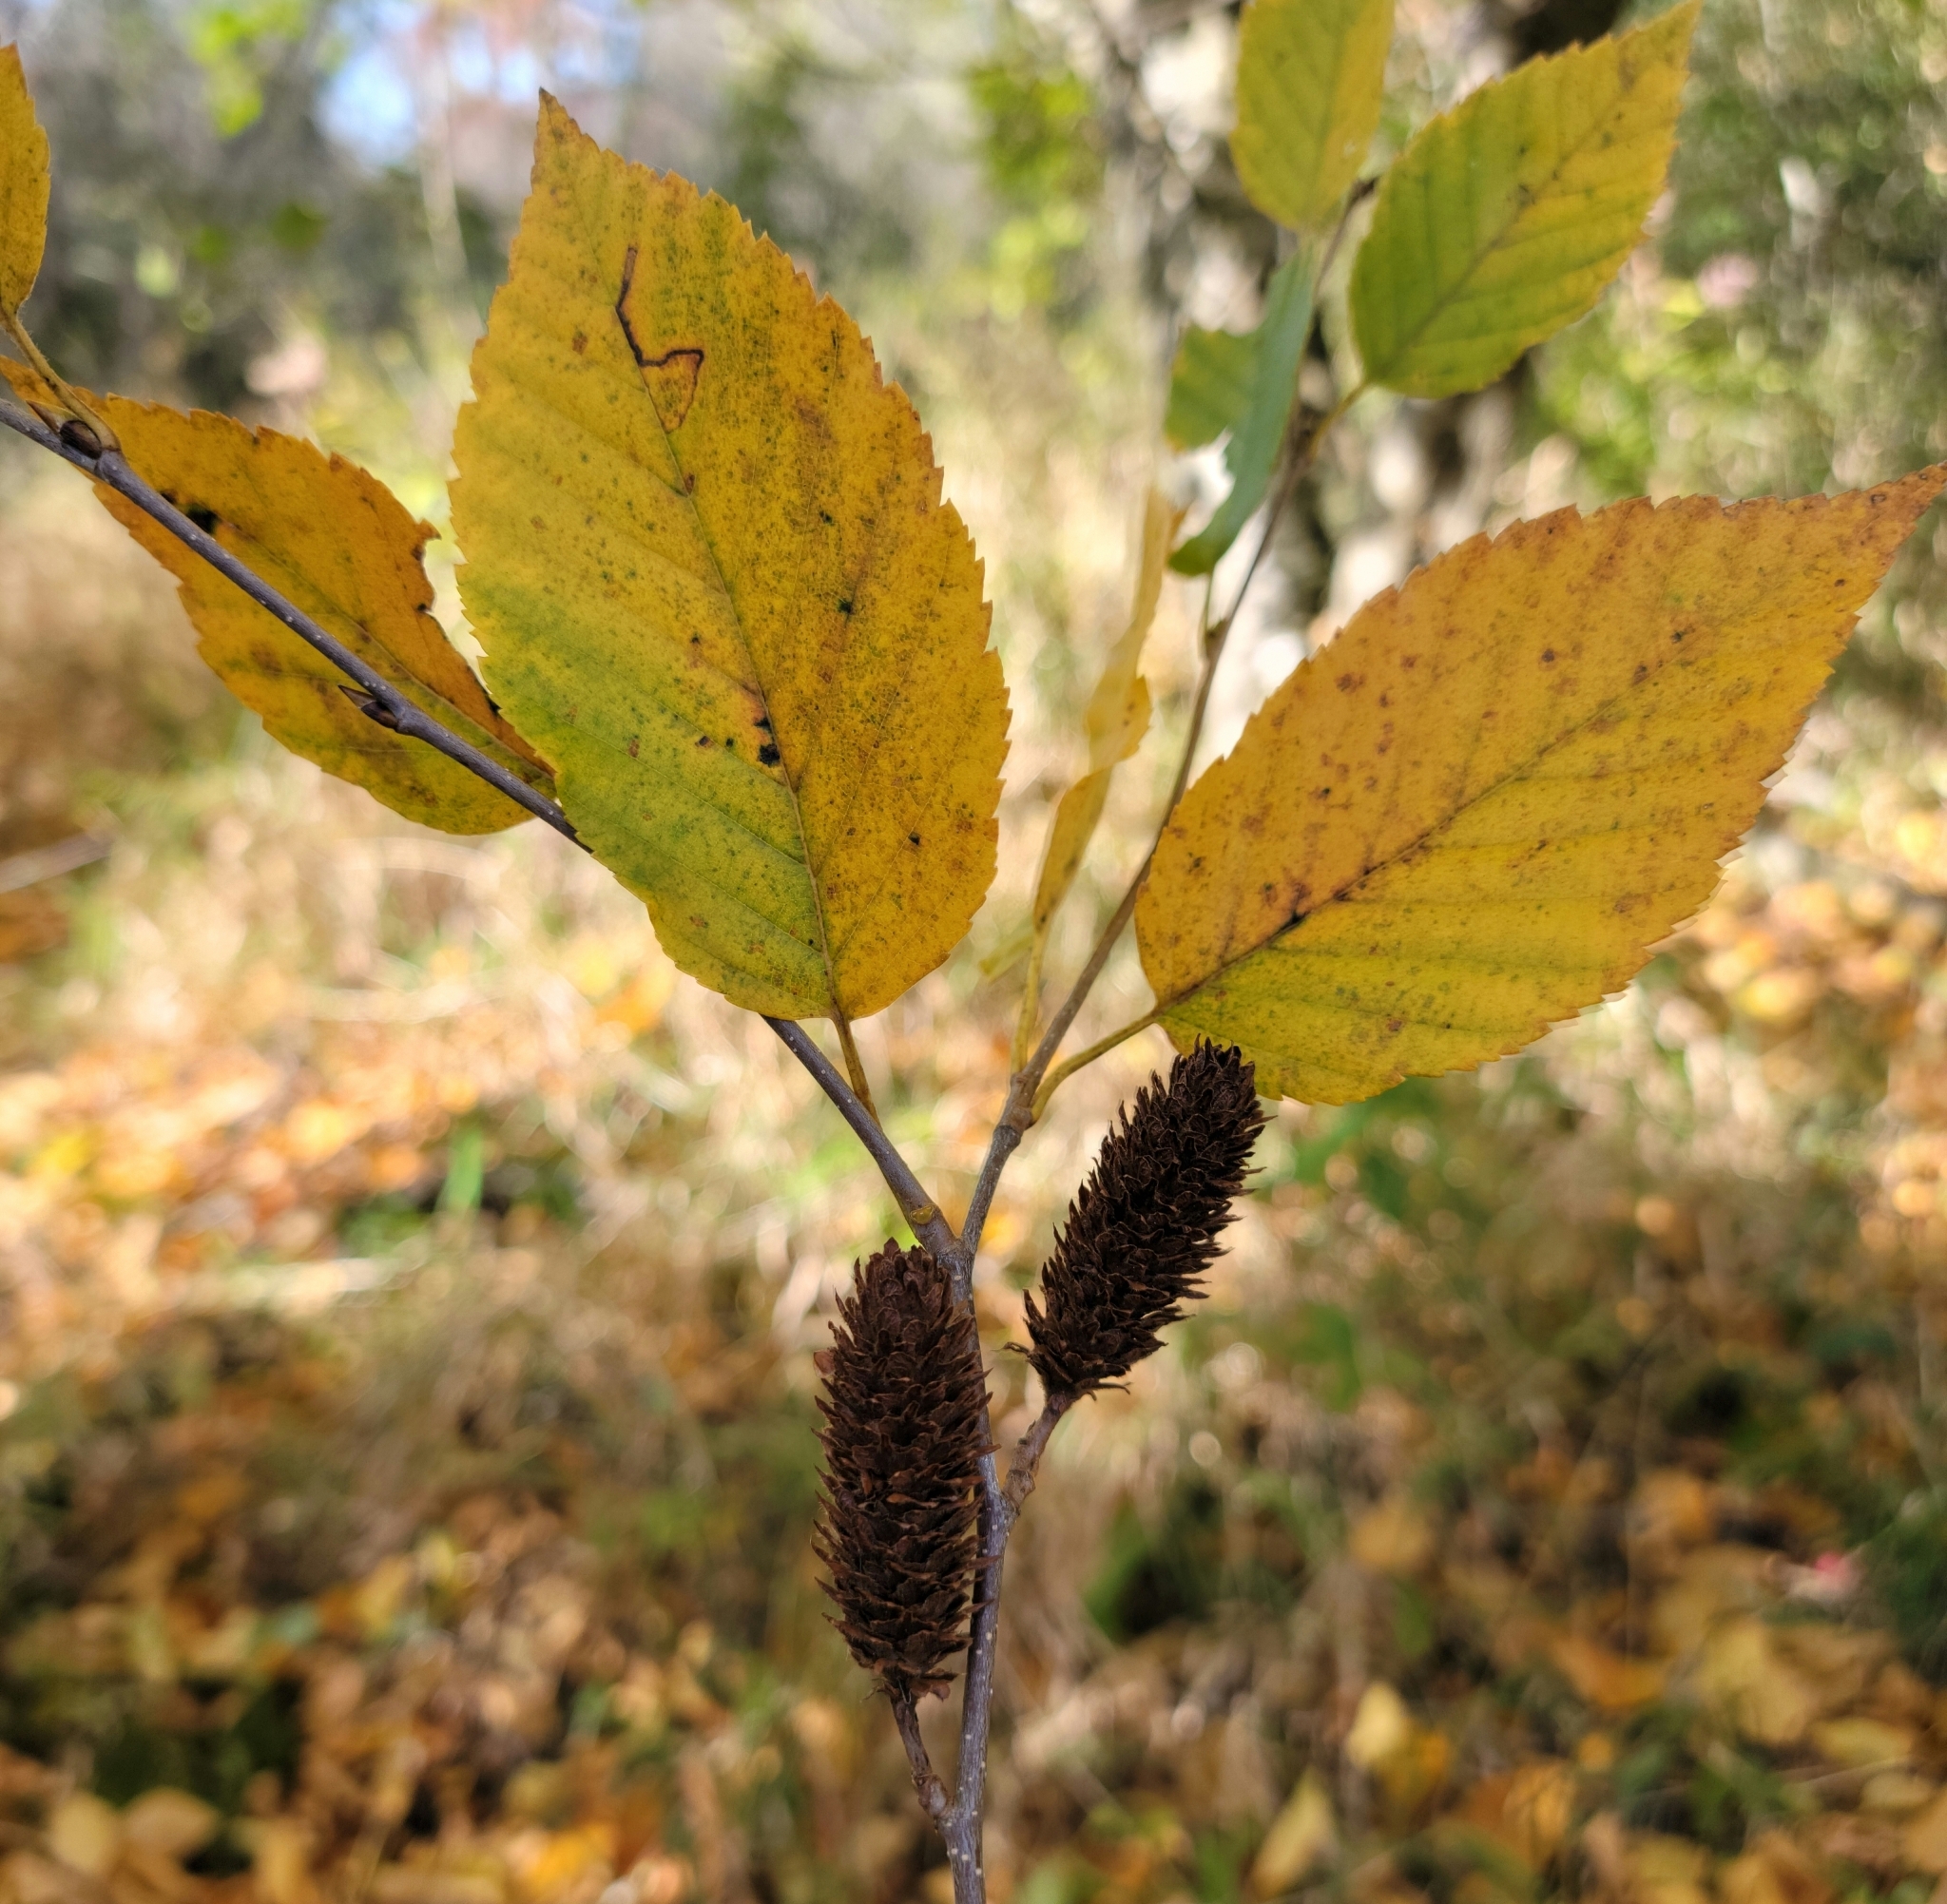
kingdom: Plantae
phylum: Tracheophyta
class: Magnoliopsida
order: Fagales
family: Betulaceae
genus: Betula
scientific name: Betula alleghaniensis
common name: Yellow birch
